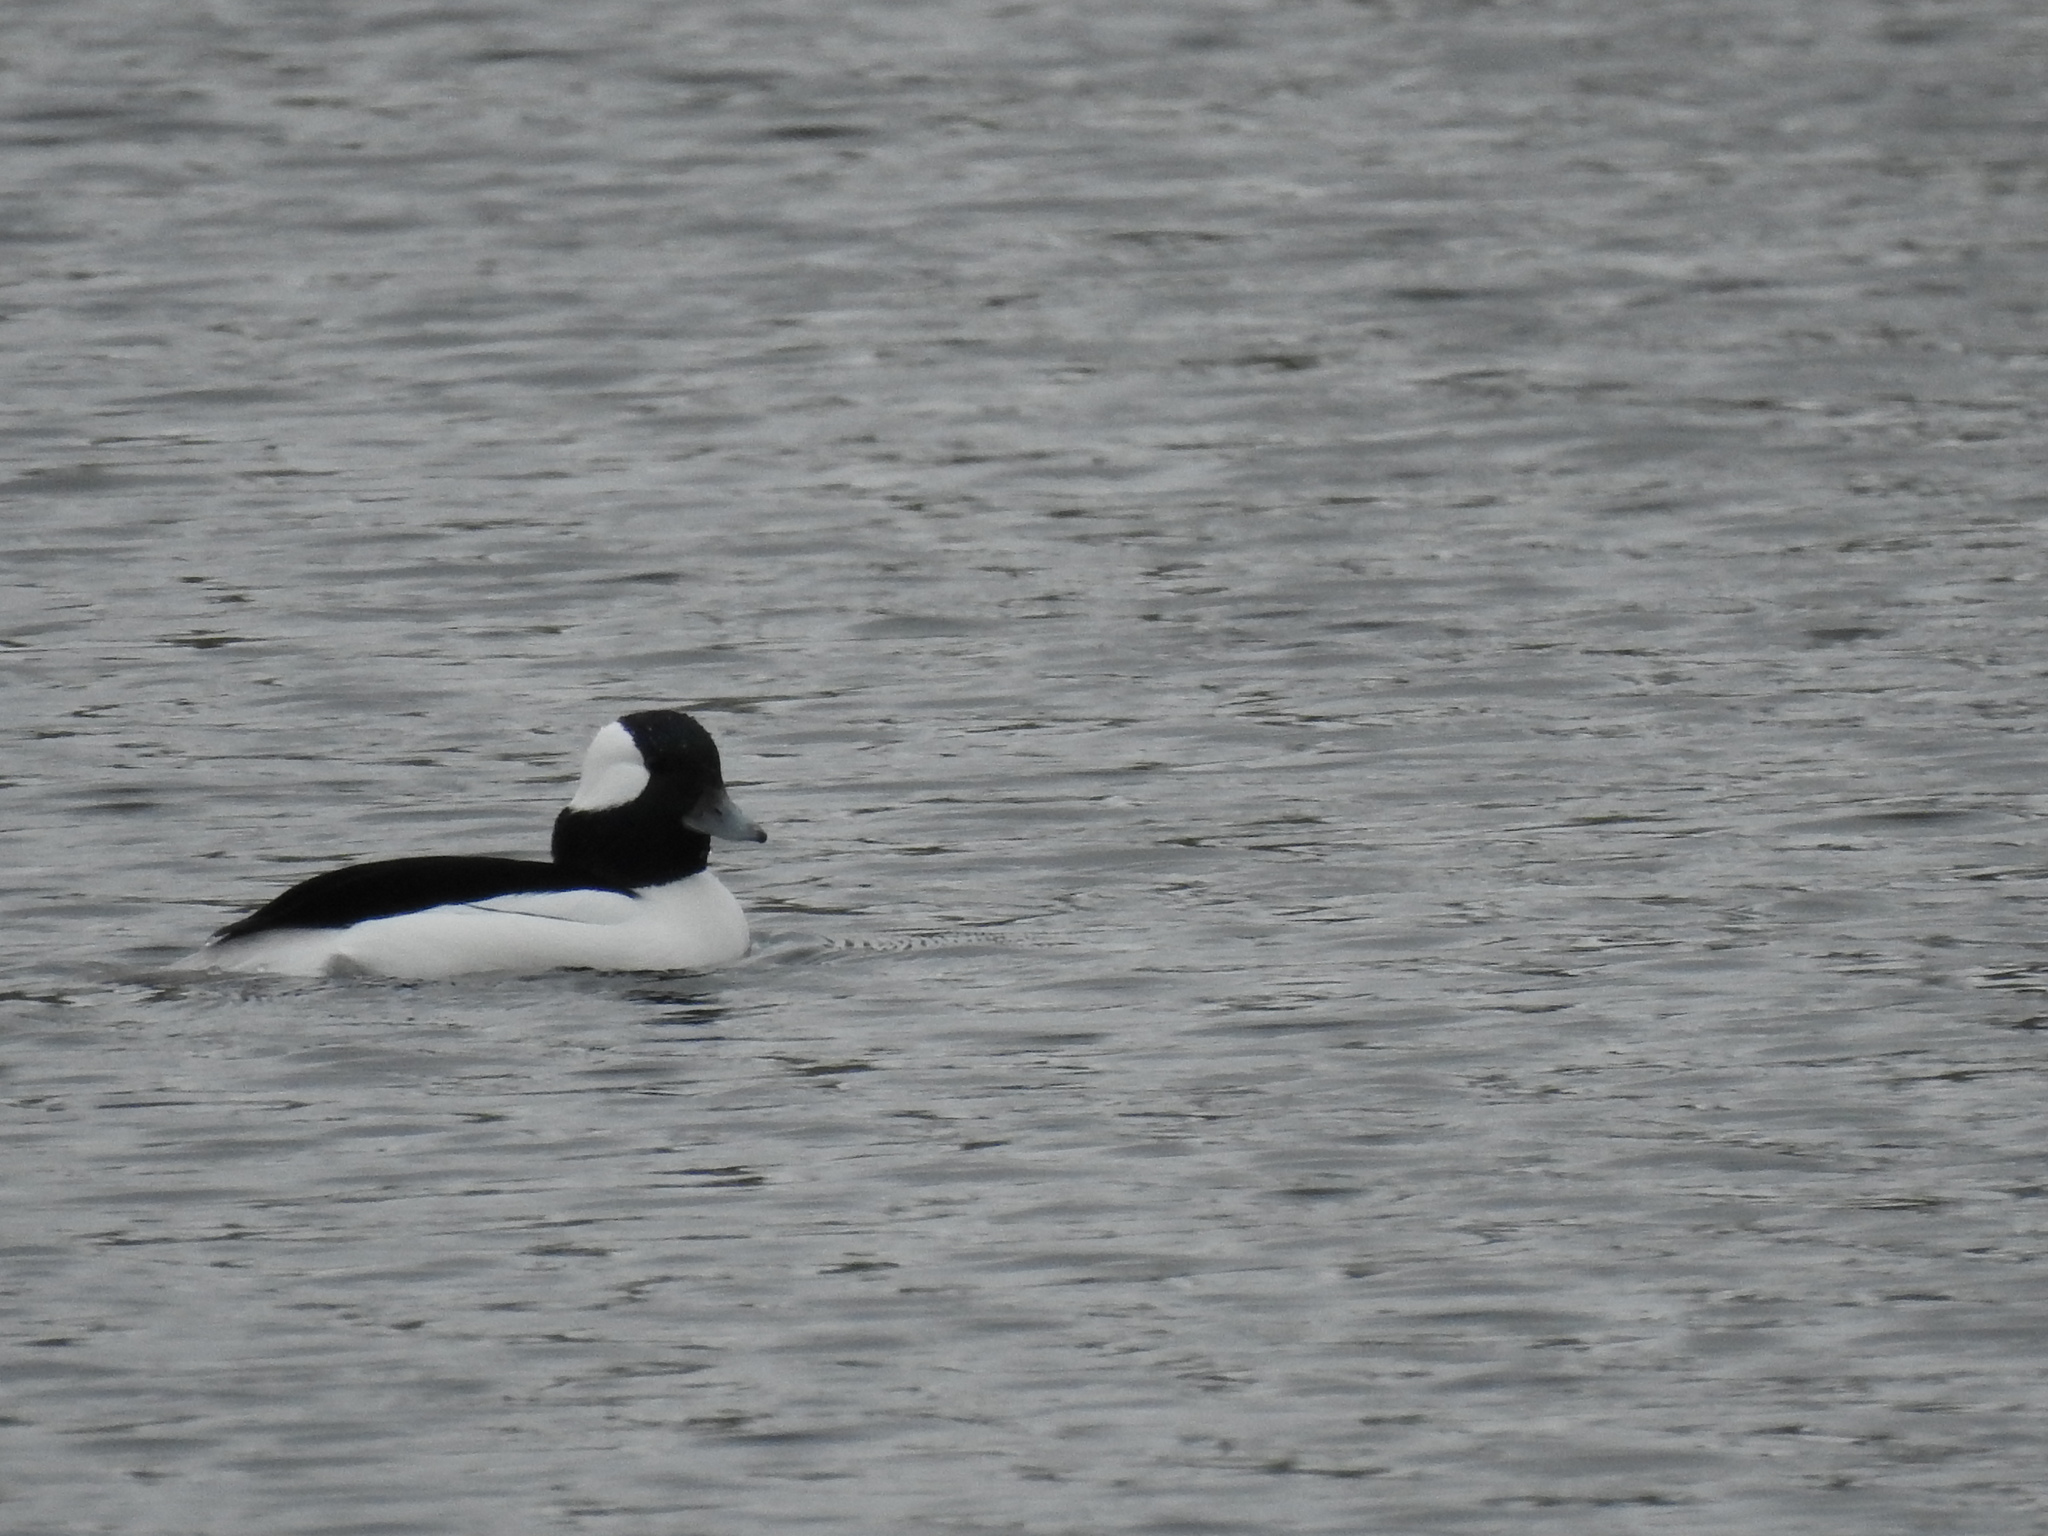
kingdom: Animalia
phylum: Chordata
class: Aves
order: Anseriformes
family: Anatidae
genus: Bucephala
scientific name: Bucephala albeola
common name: Bufflehead
